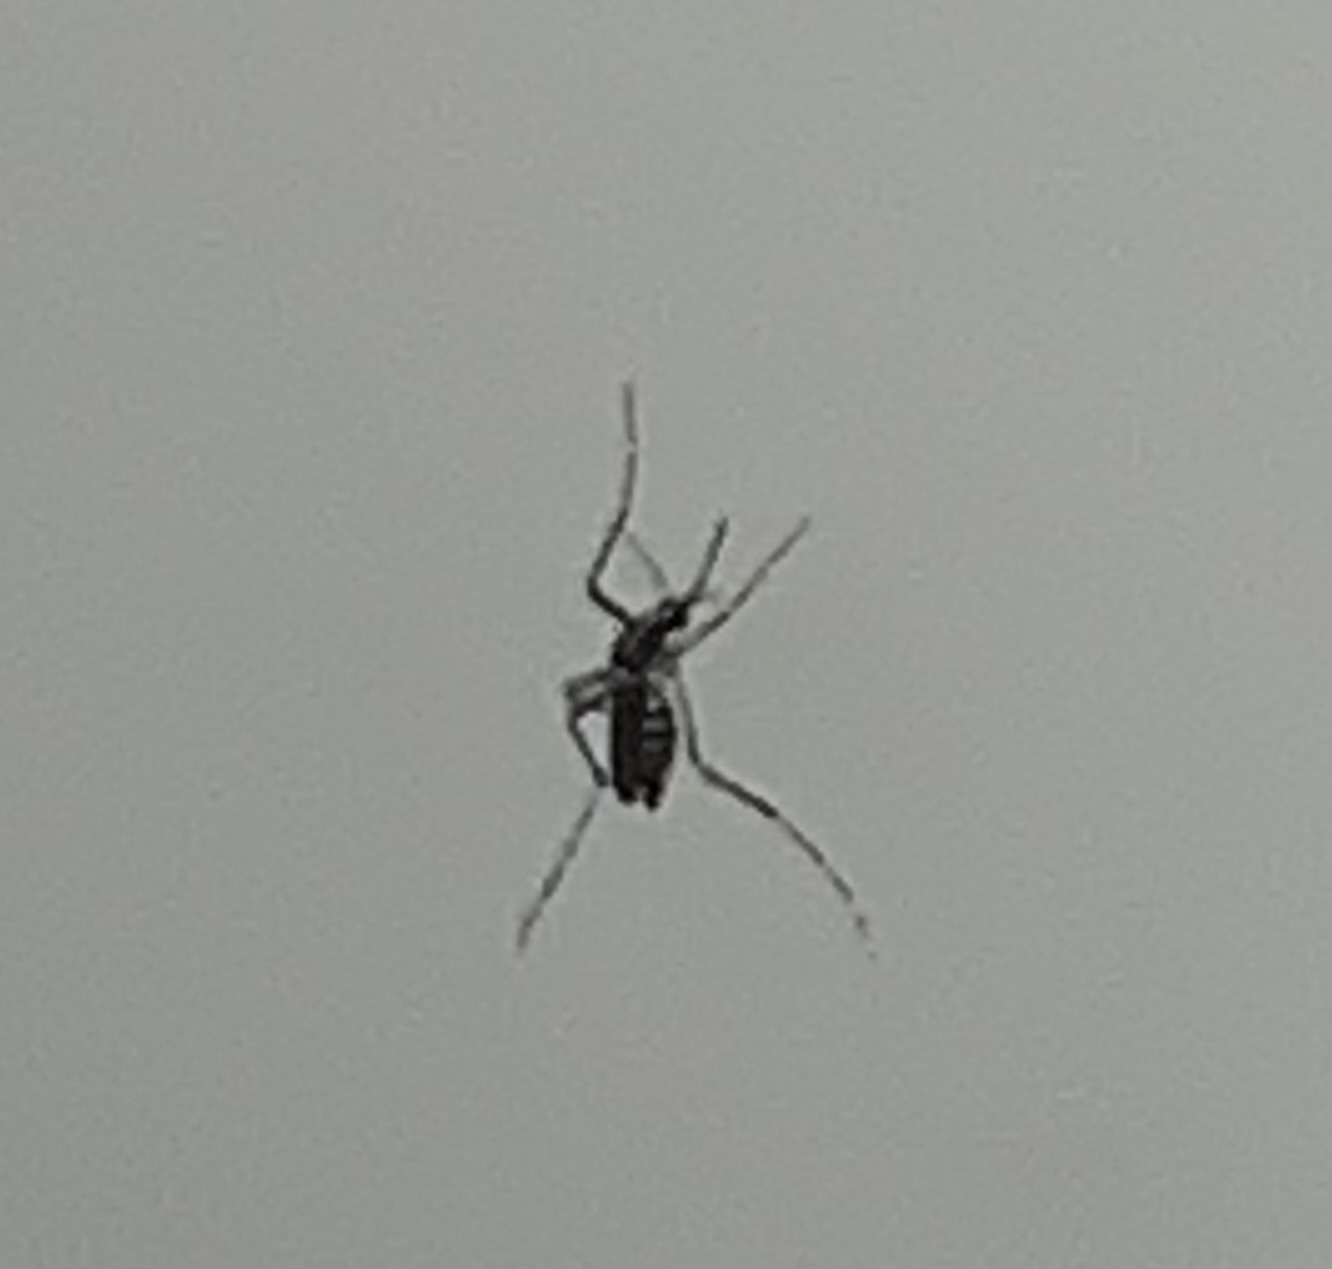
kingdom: Animalia
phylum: Arthropoda
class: Insecta
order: Diptera
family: Culicidae
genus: Aedes
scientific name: Aedes albopictus
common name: Tiger mosquito
